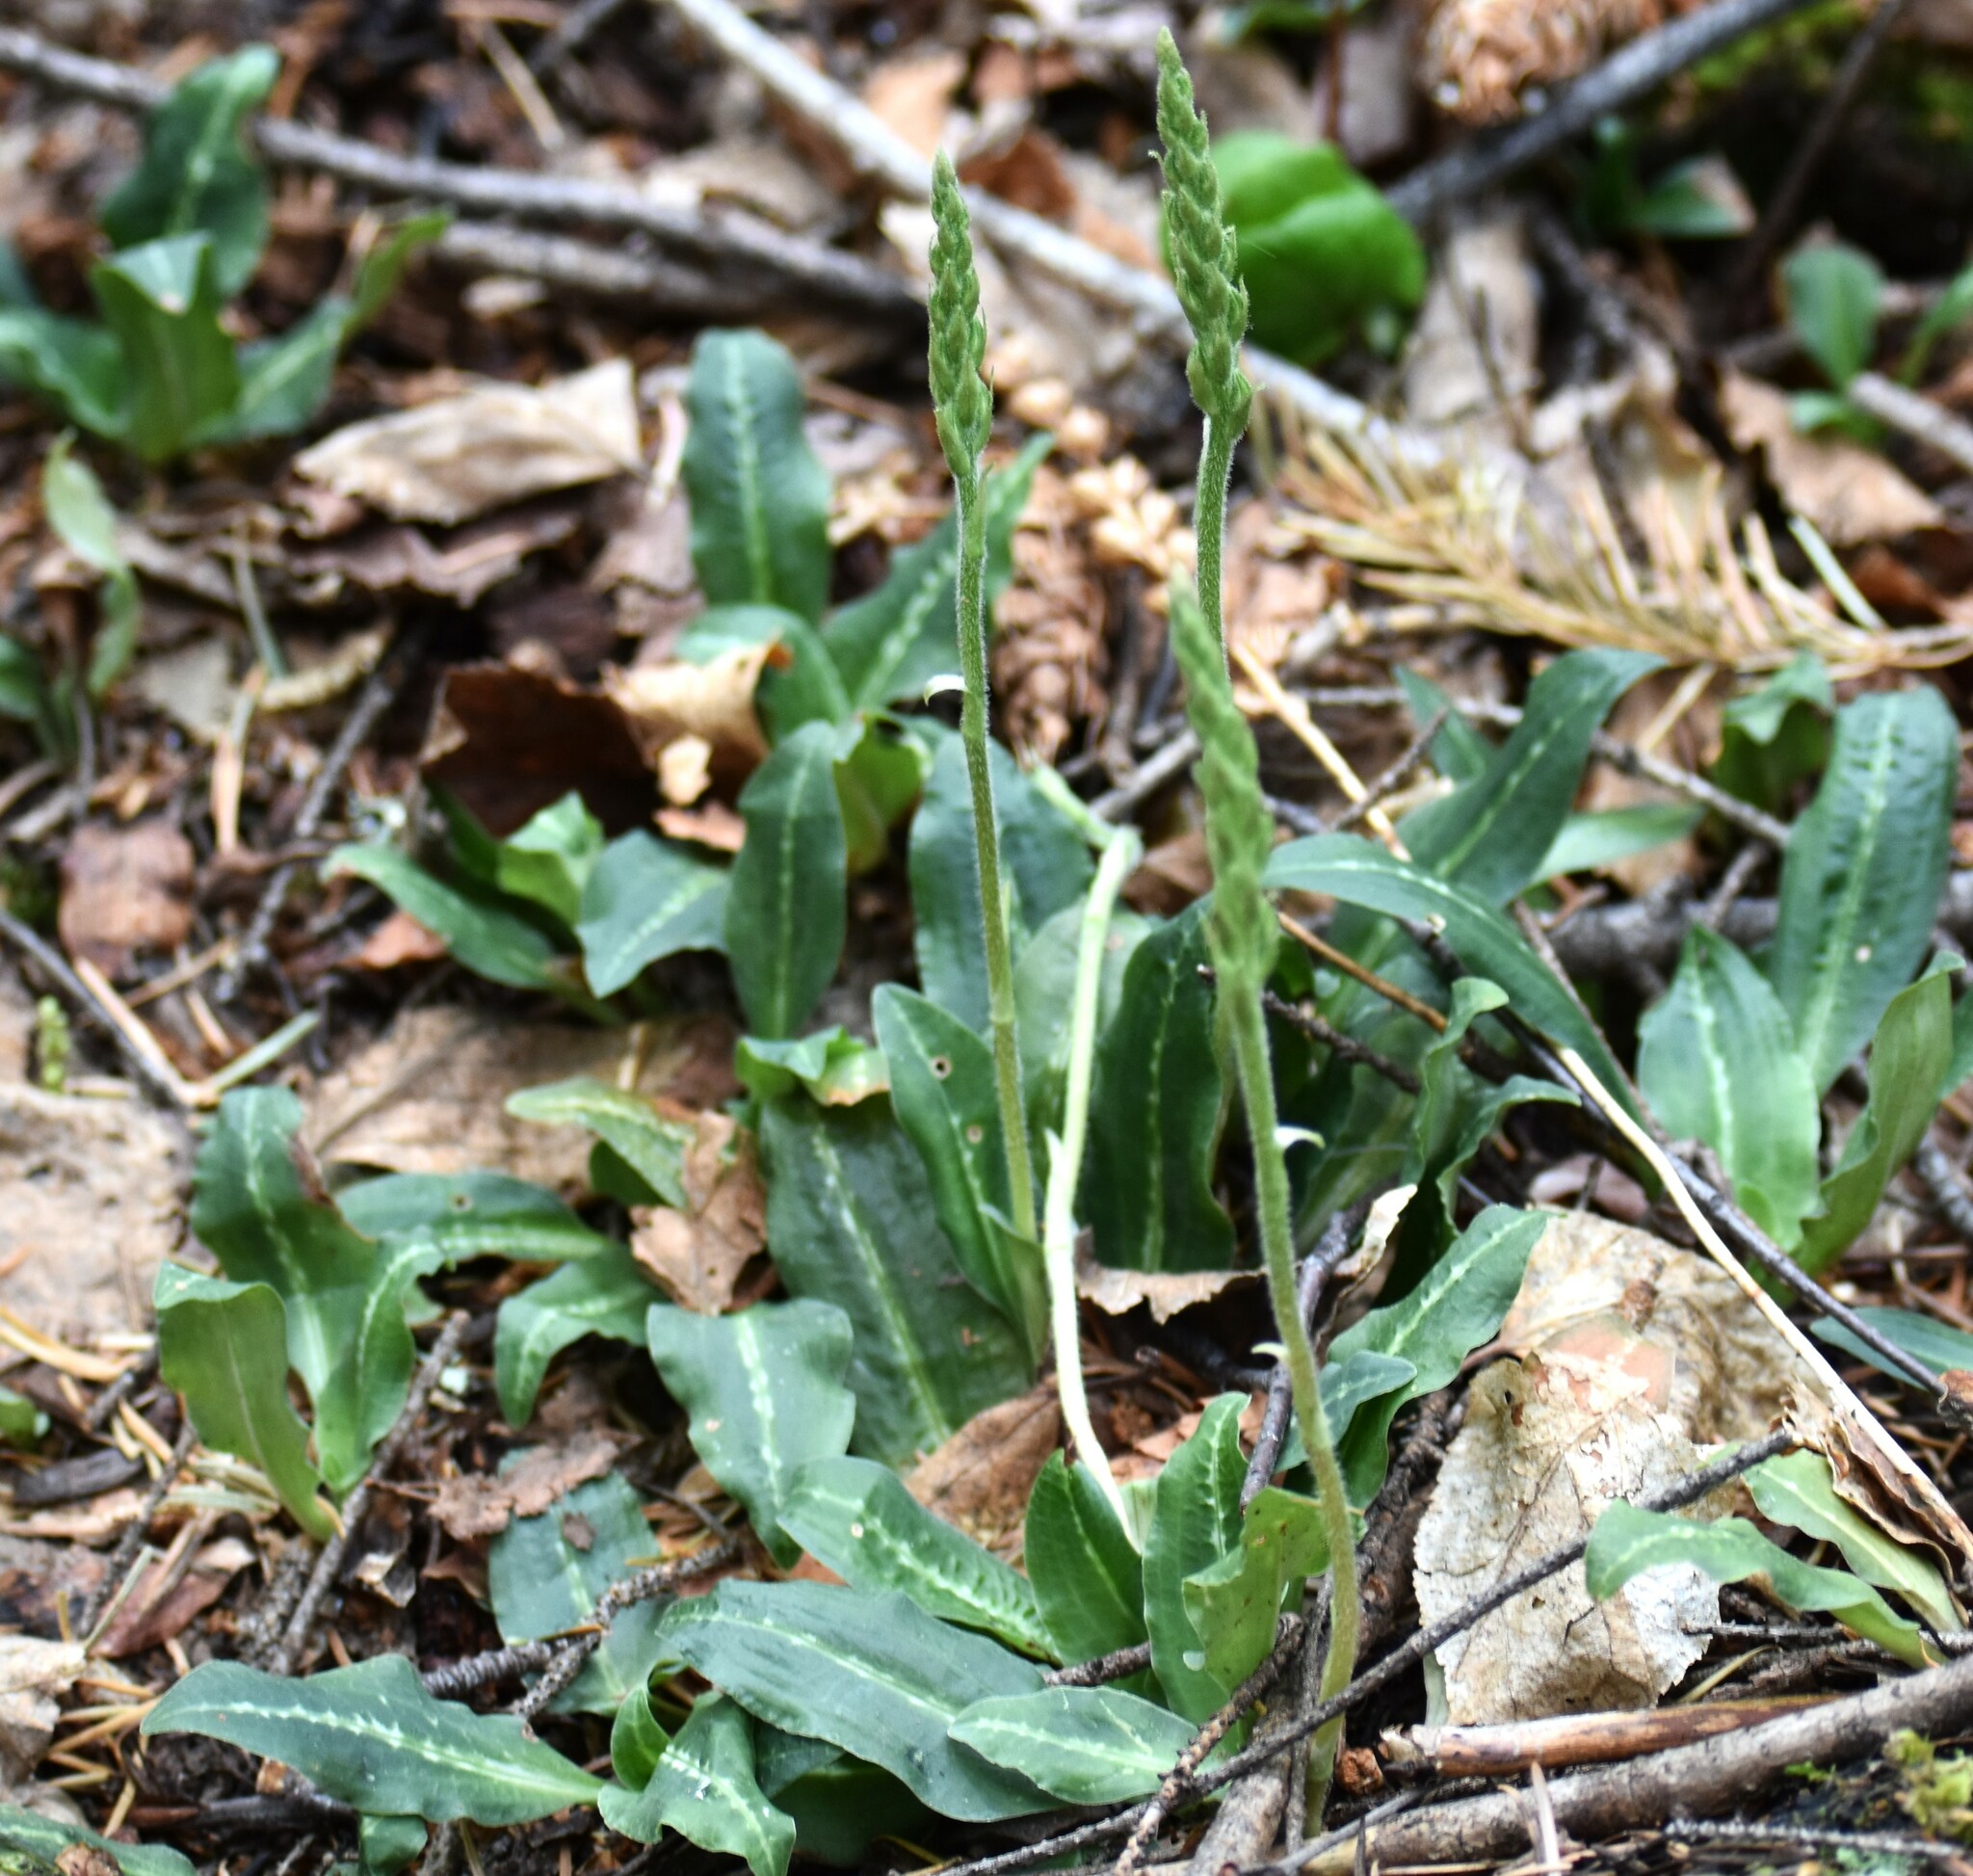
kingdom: Plantae
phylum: Tracheophyta
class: Liliopsida
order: Asparagales
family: Orchidaceae
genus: Goodyera
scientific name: Goodyera oblongifolia
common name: Giant rattlesnake-plantain
